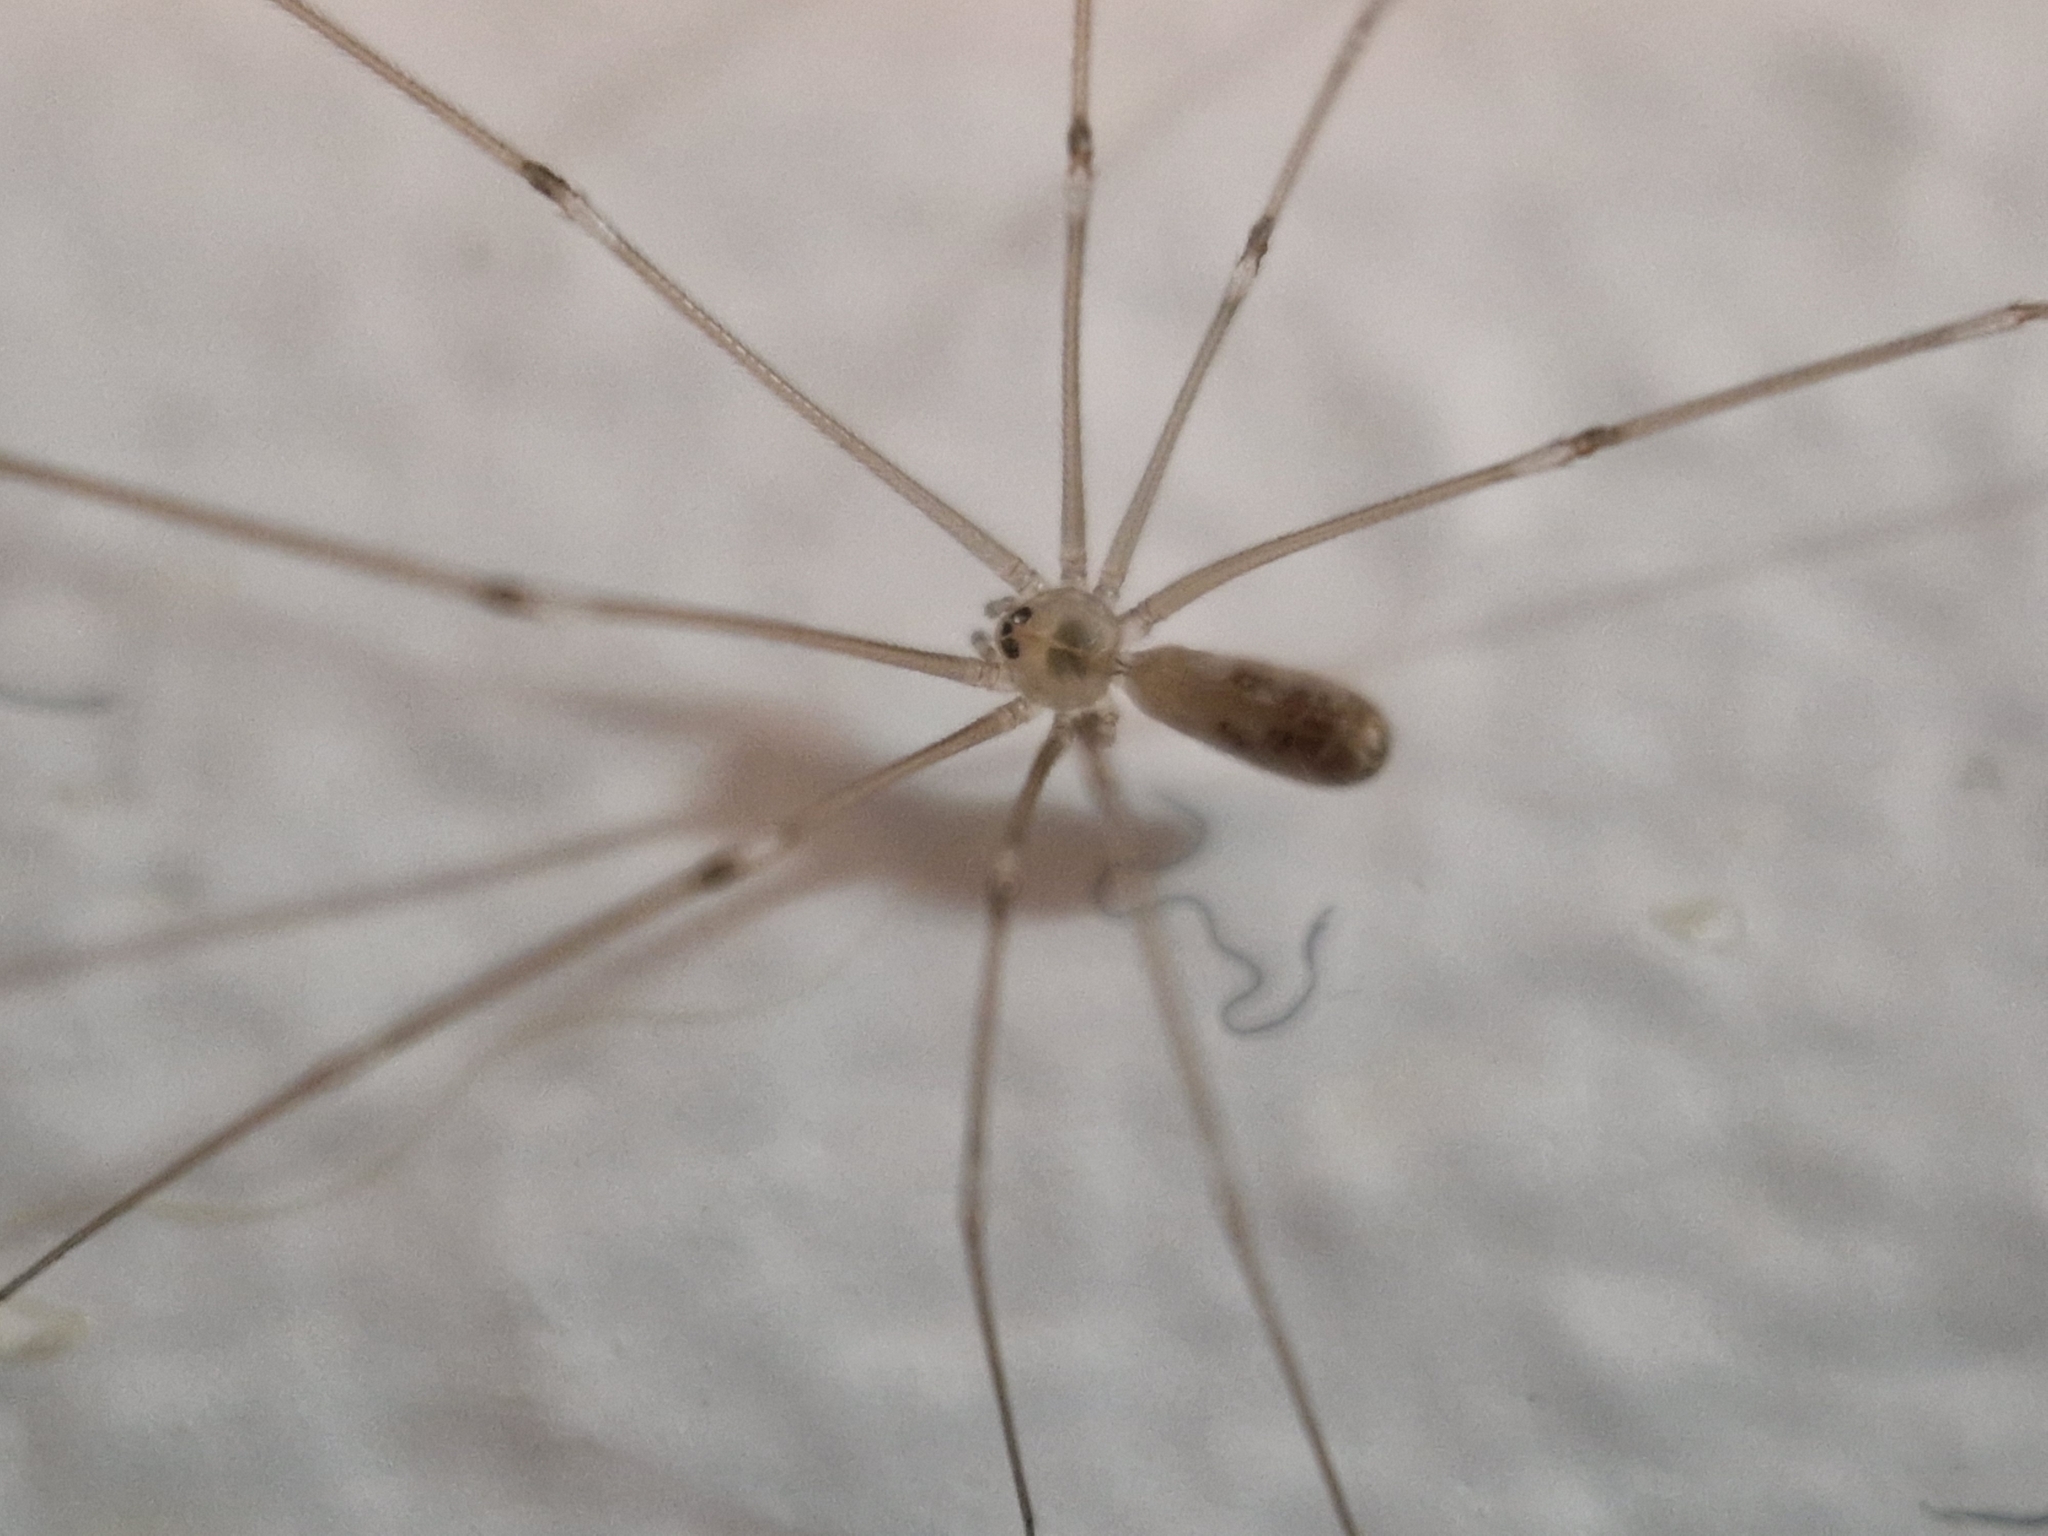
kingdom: Animalia
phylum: Arthropoda
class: Arachnida
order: Araneae
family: Pholcidae
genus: Pholcus
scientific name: Pholcus phalangioides
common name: Longbodied cellar spider
